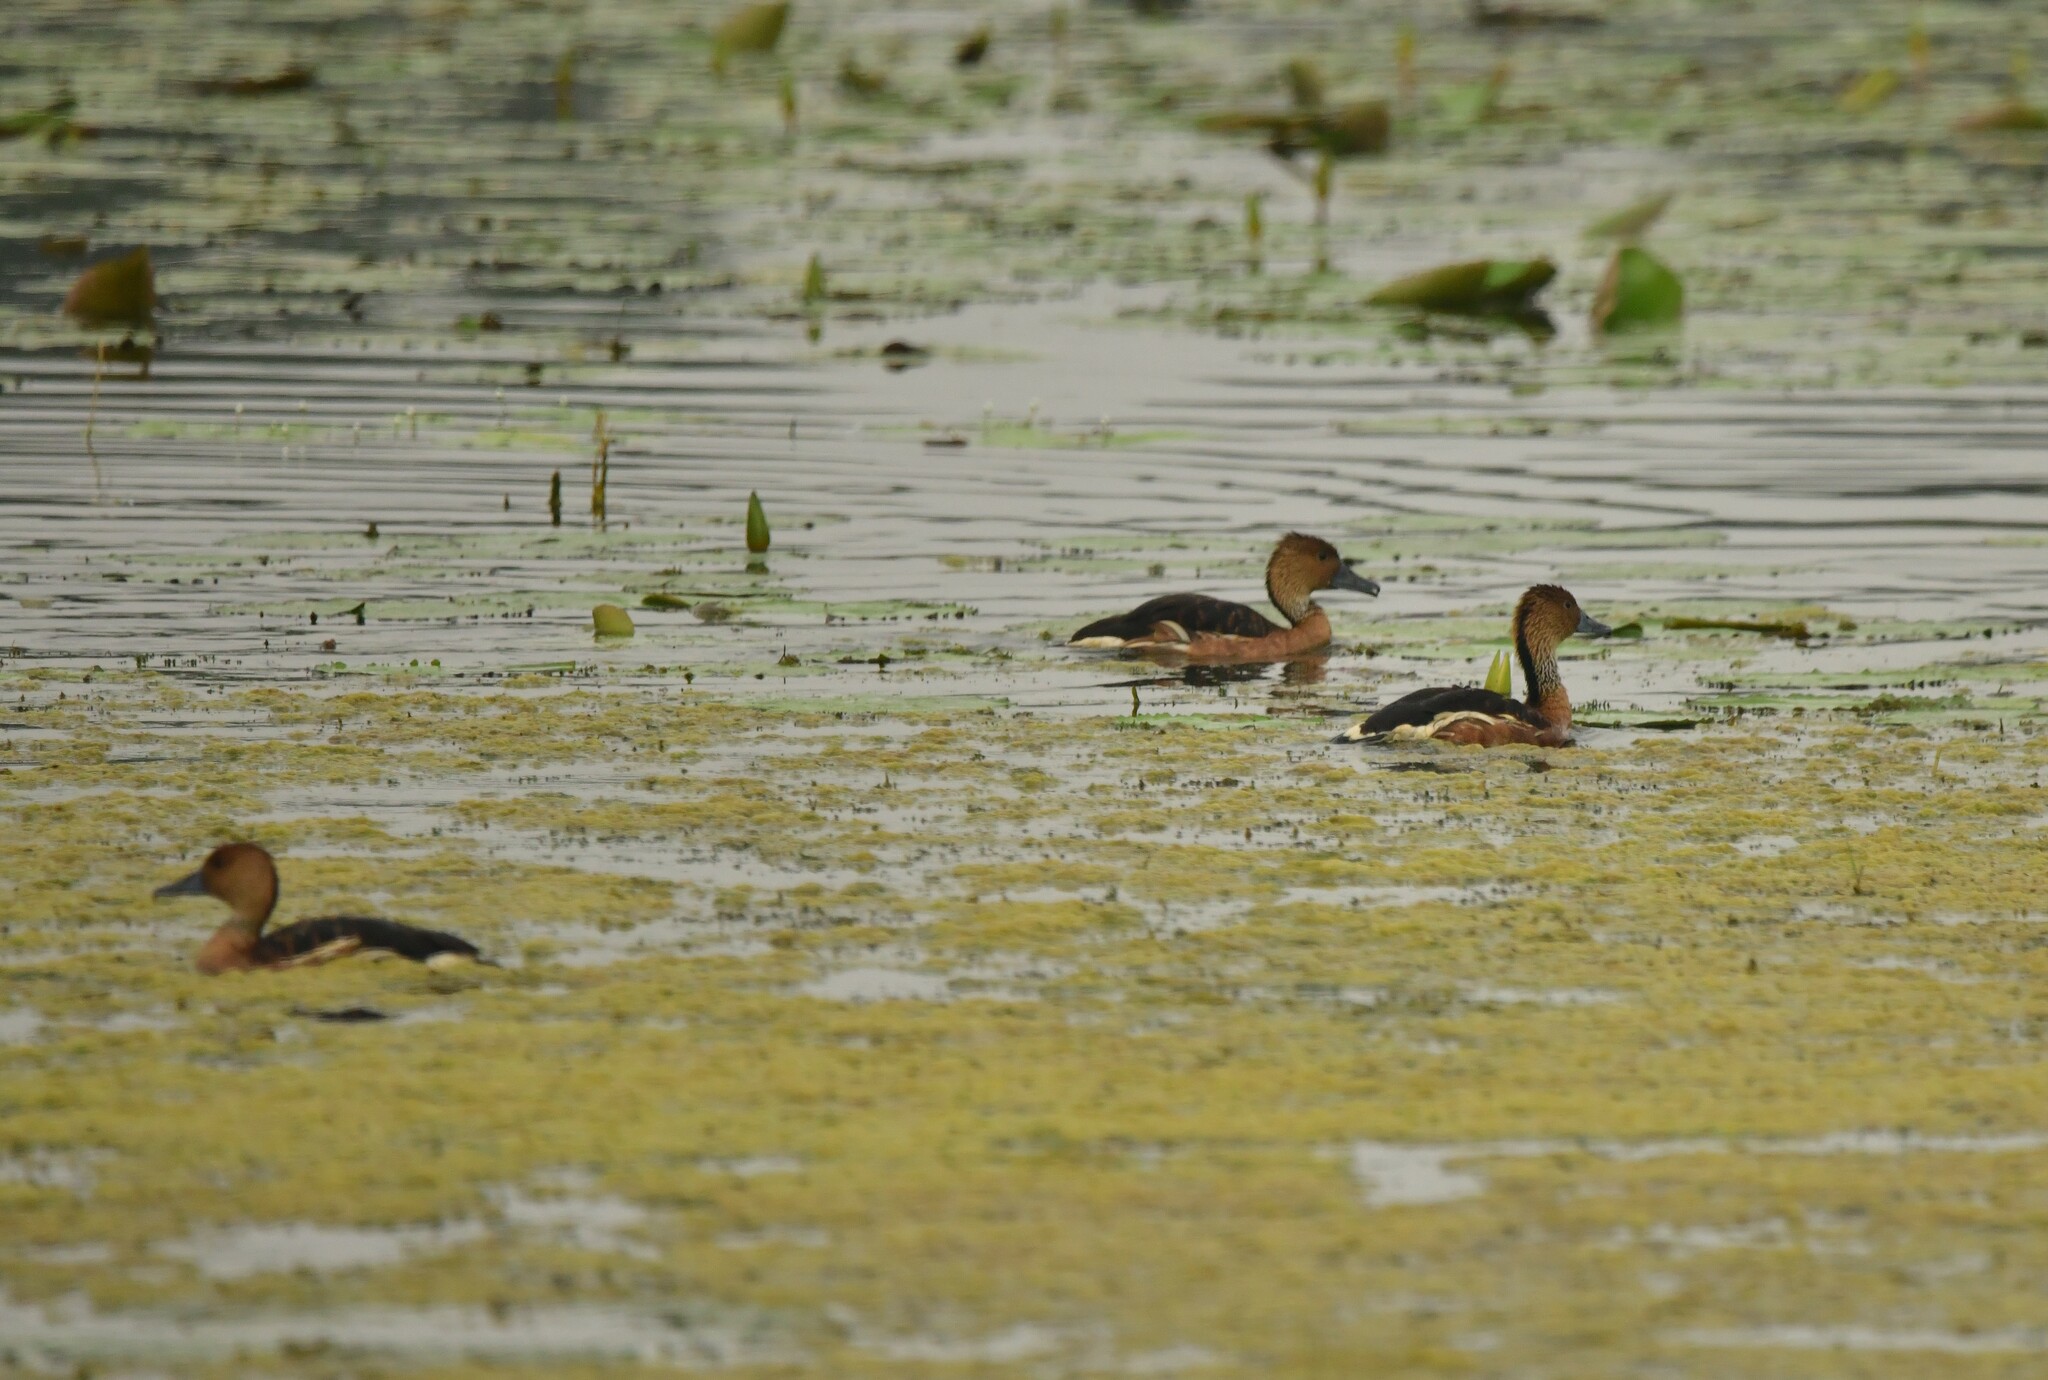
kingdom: Animalia
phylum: Chordata
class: Aves
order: Anseriformes
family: Anatidae
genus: Dendrocygna
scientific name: Dendrocygna bicolor
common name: Fulvous whistling duck
